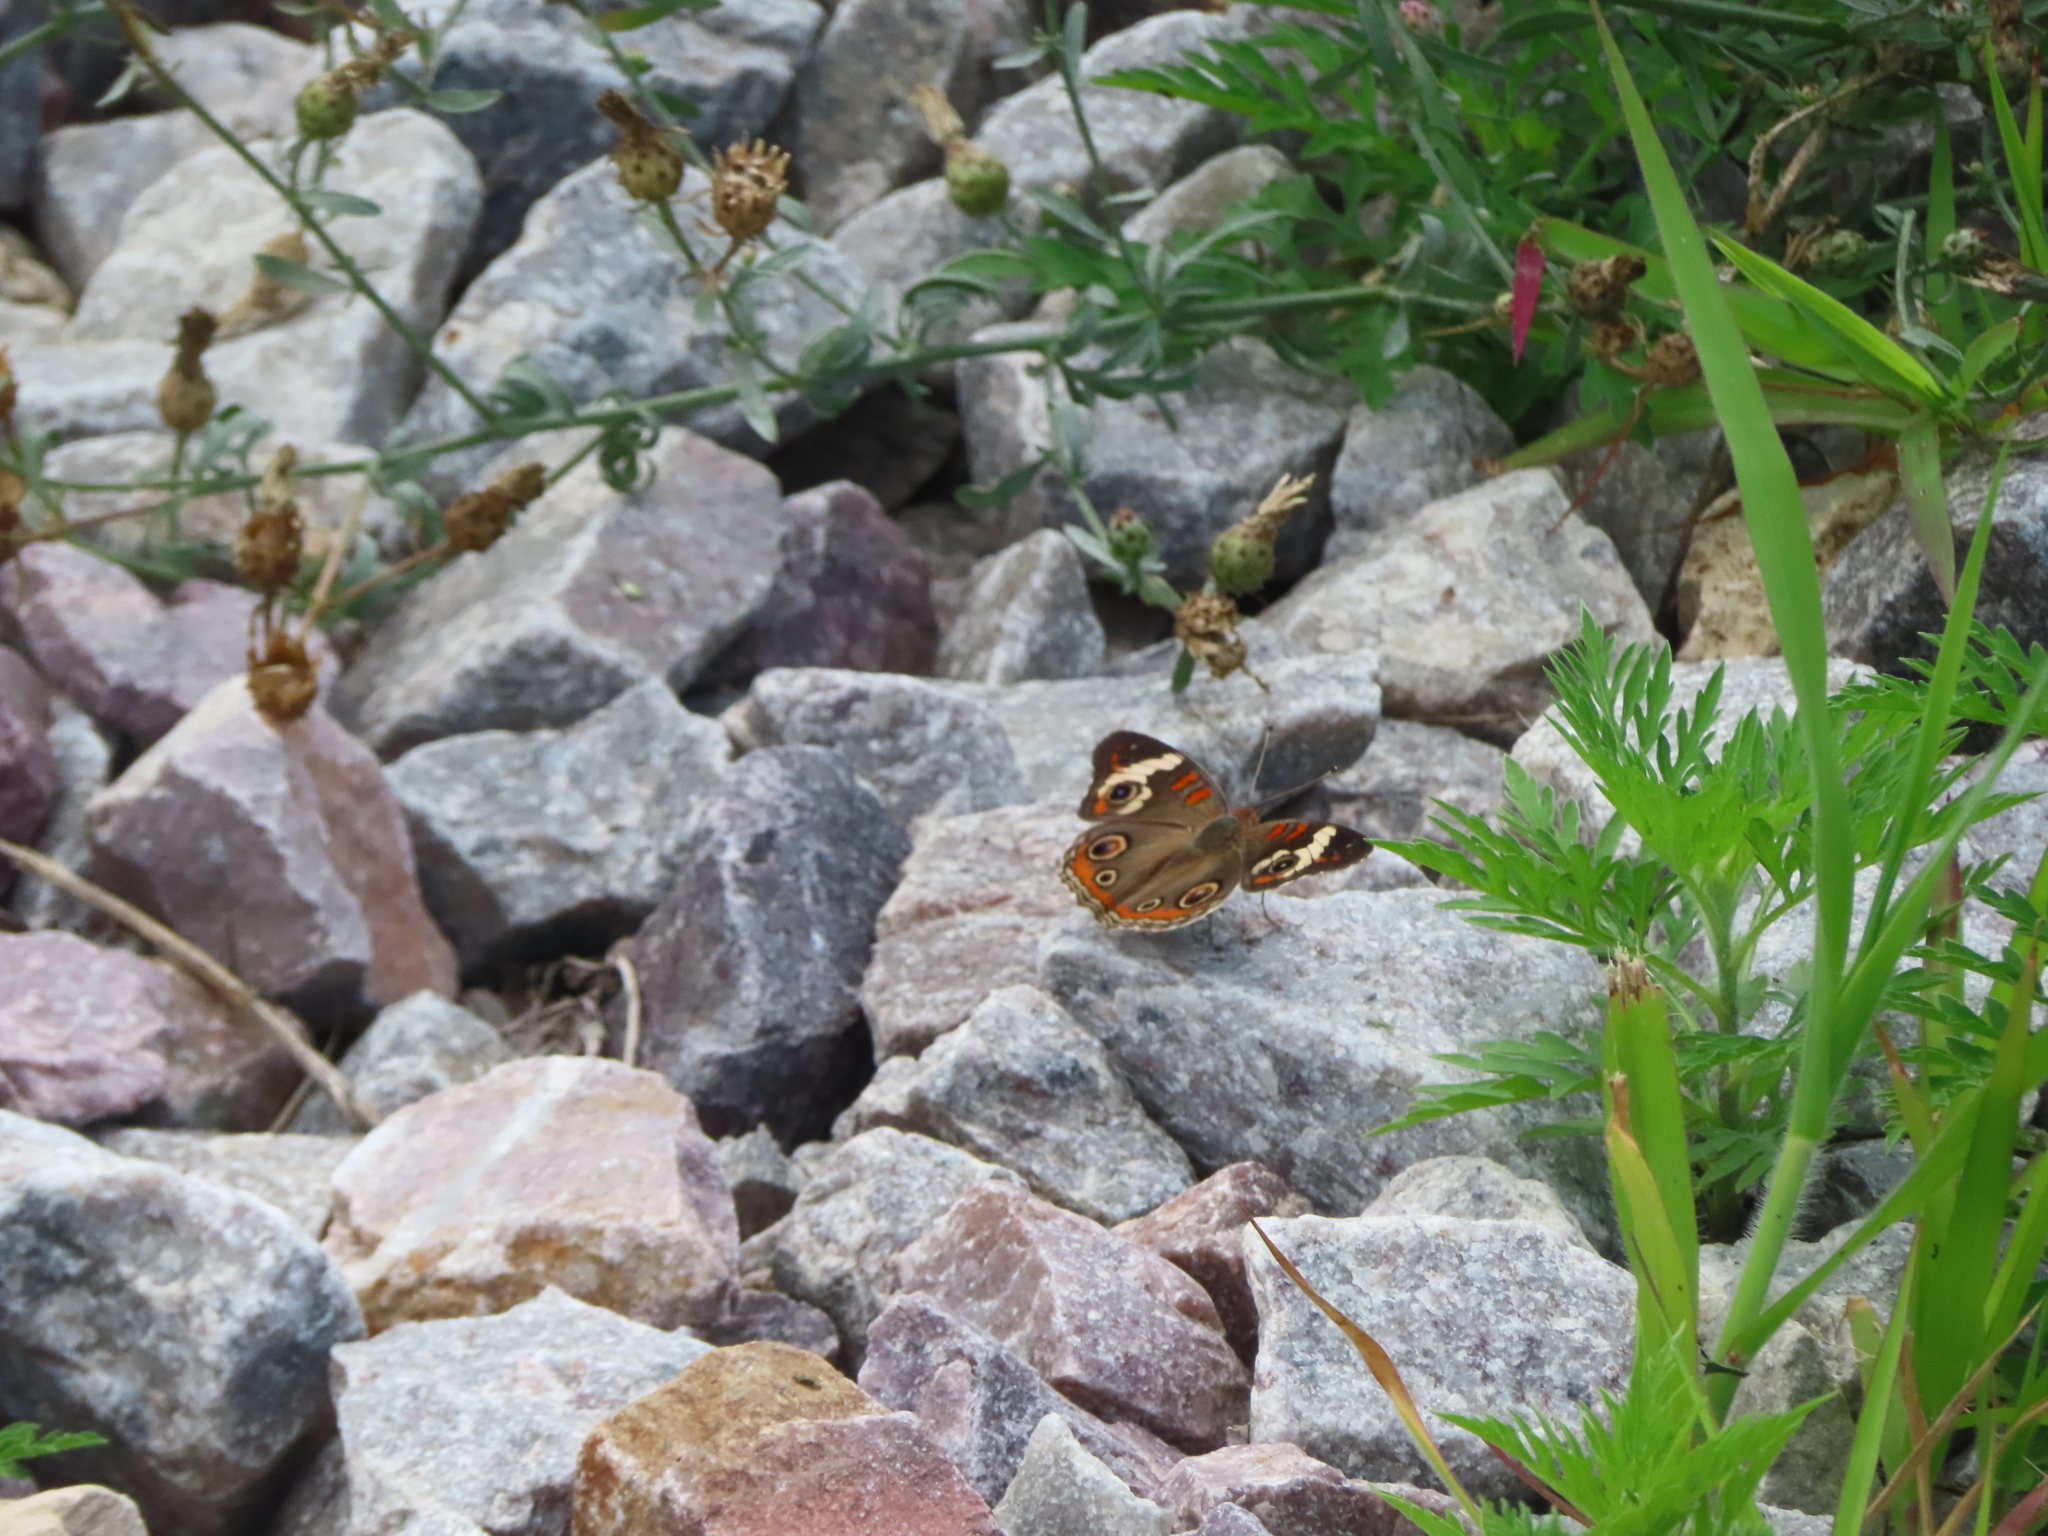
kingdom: Animalia
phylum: Arthropoda
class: Insecta
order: Lepidoptera
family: Nymphalidae
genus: Junonia
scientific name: Junonia coenia
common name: Common buckeye
